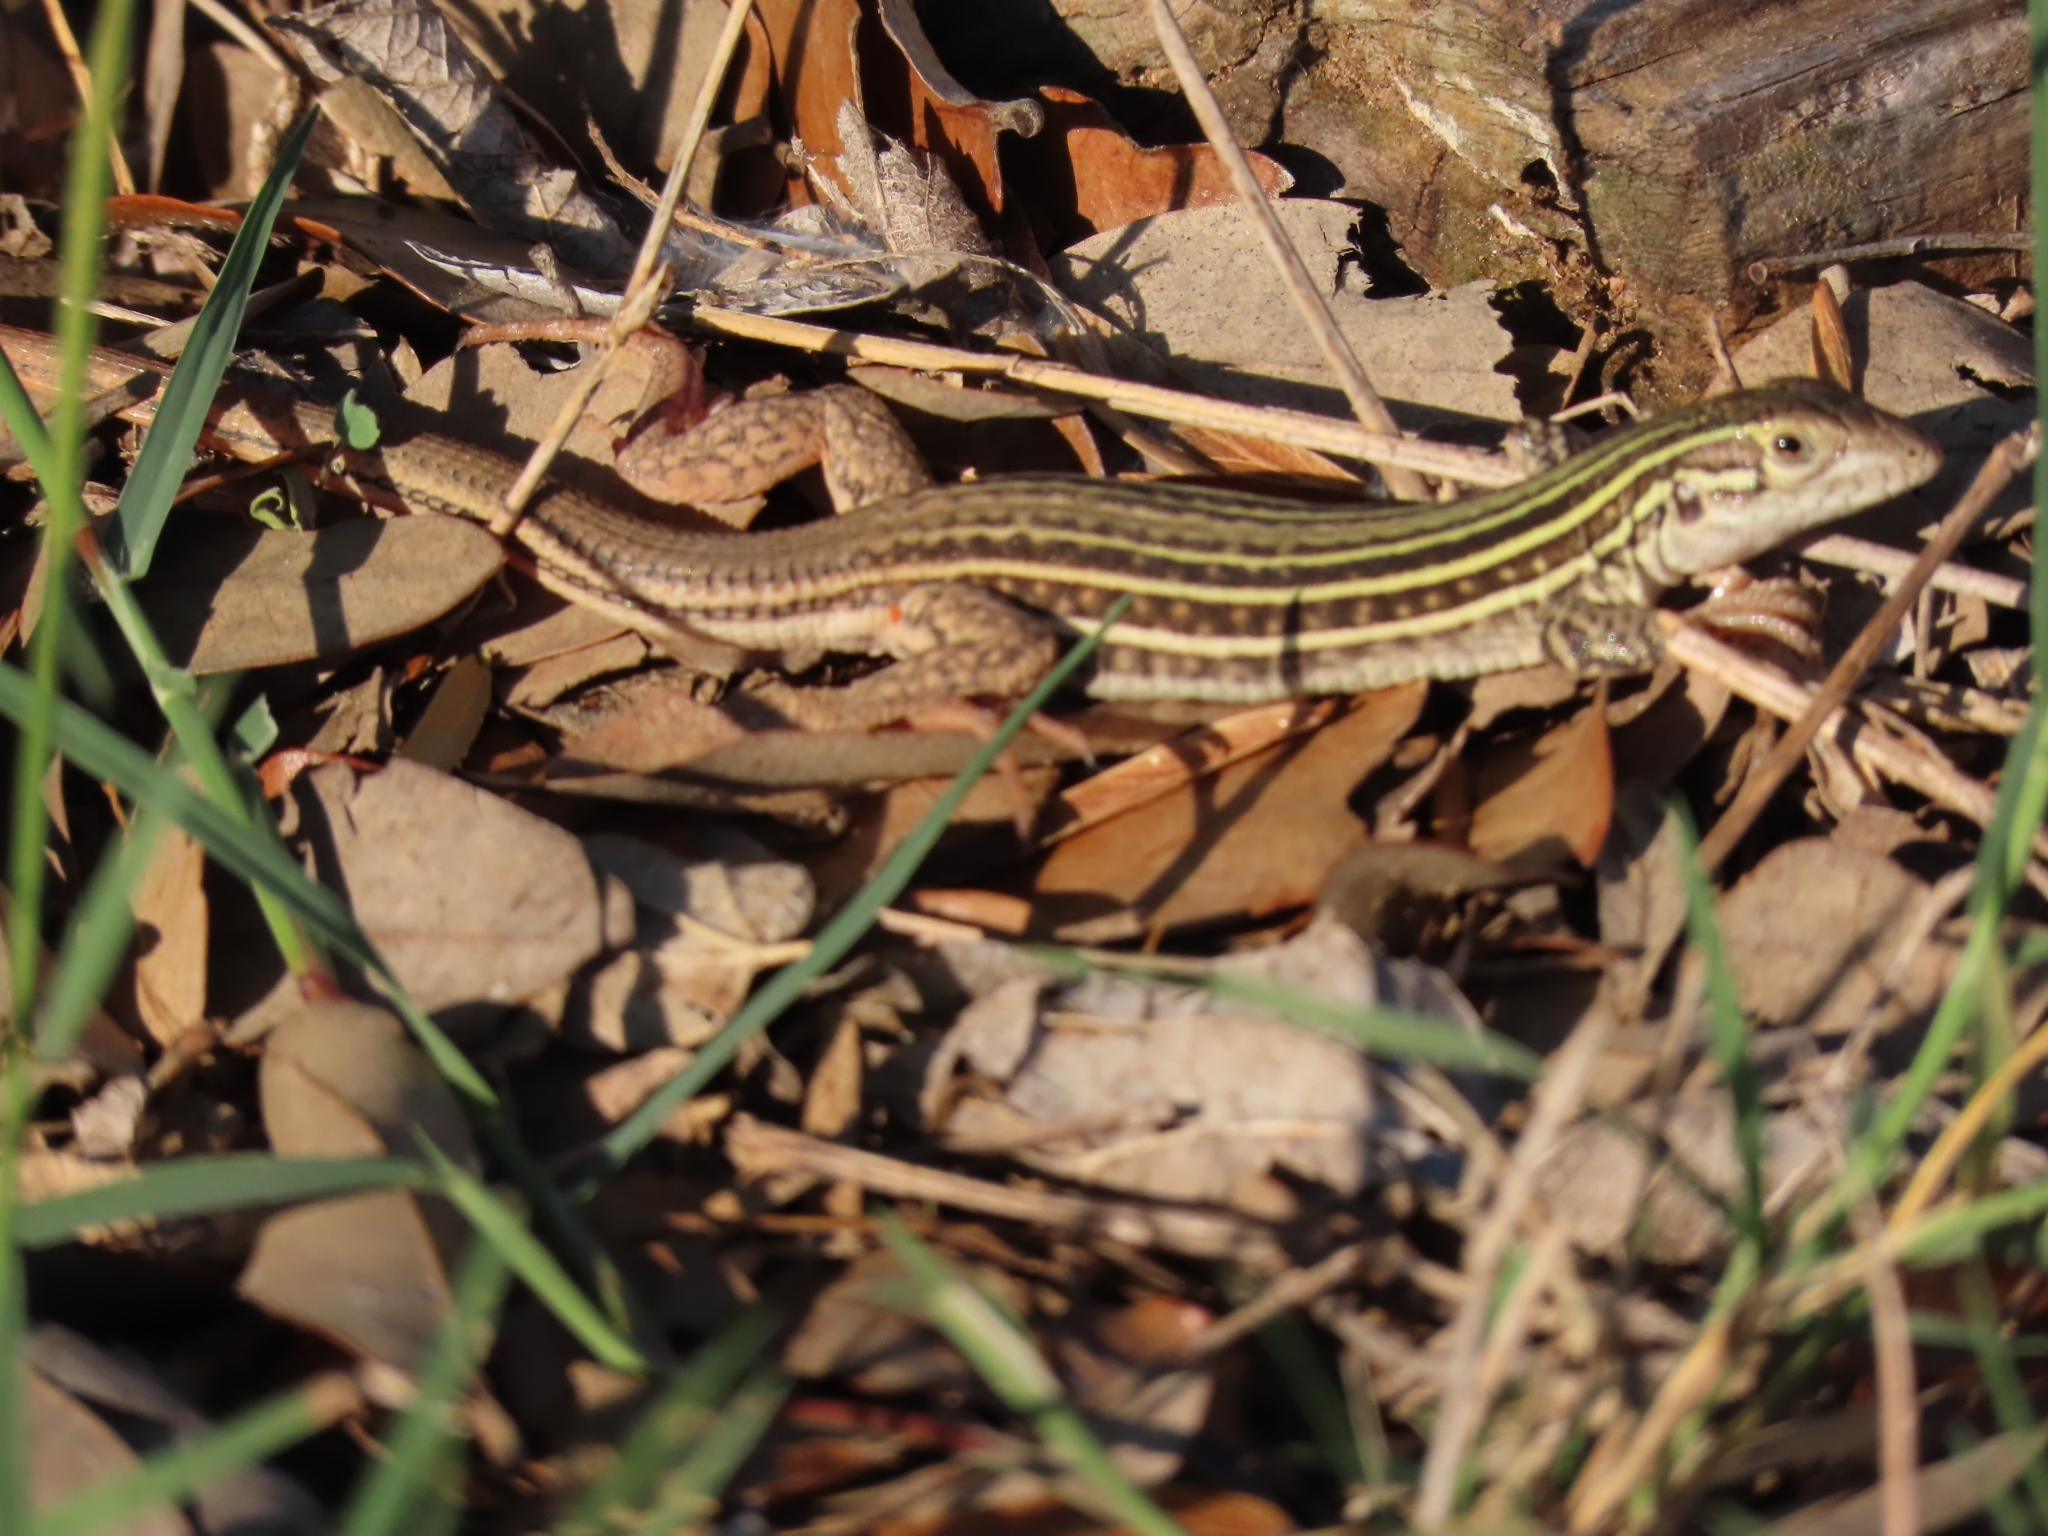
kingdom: Animalia
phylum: Chordata
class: Squamata
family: Teiidae
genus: Aspidoscelis
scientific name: Aspidoscelis gularis
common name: Eastern spotted whiptail
